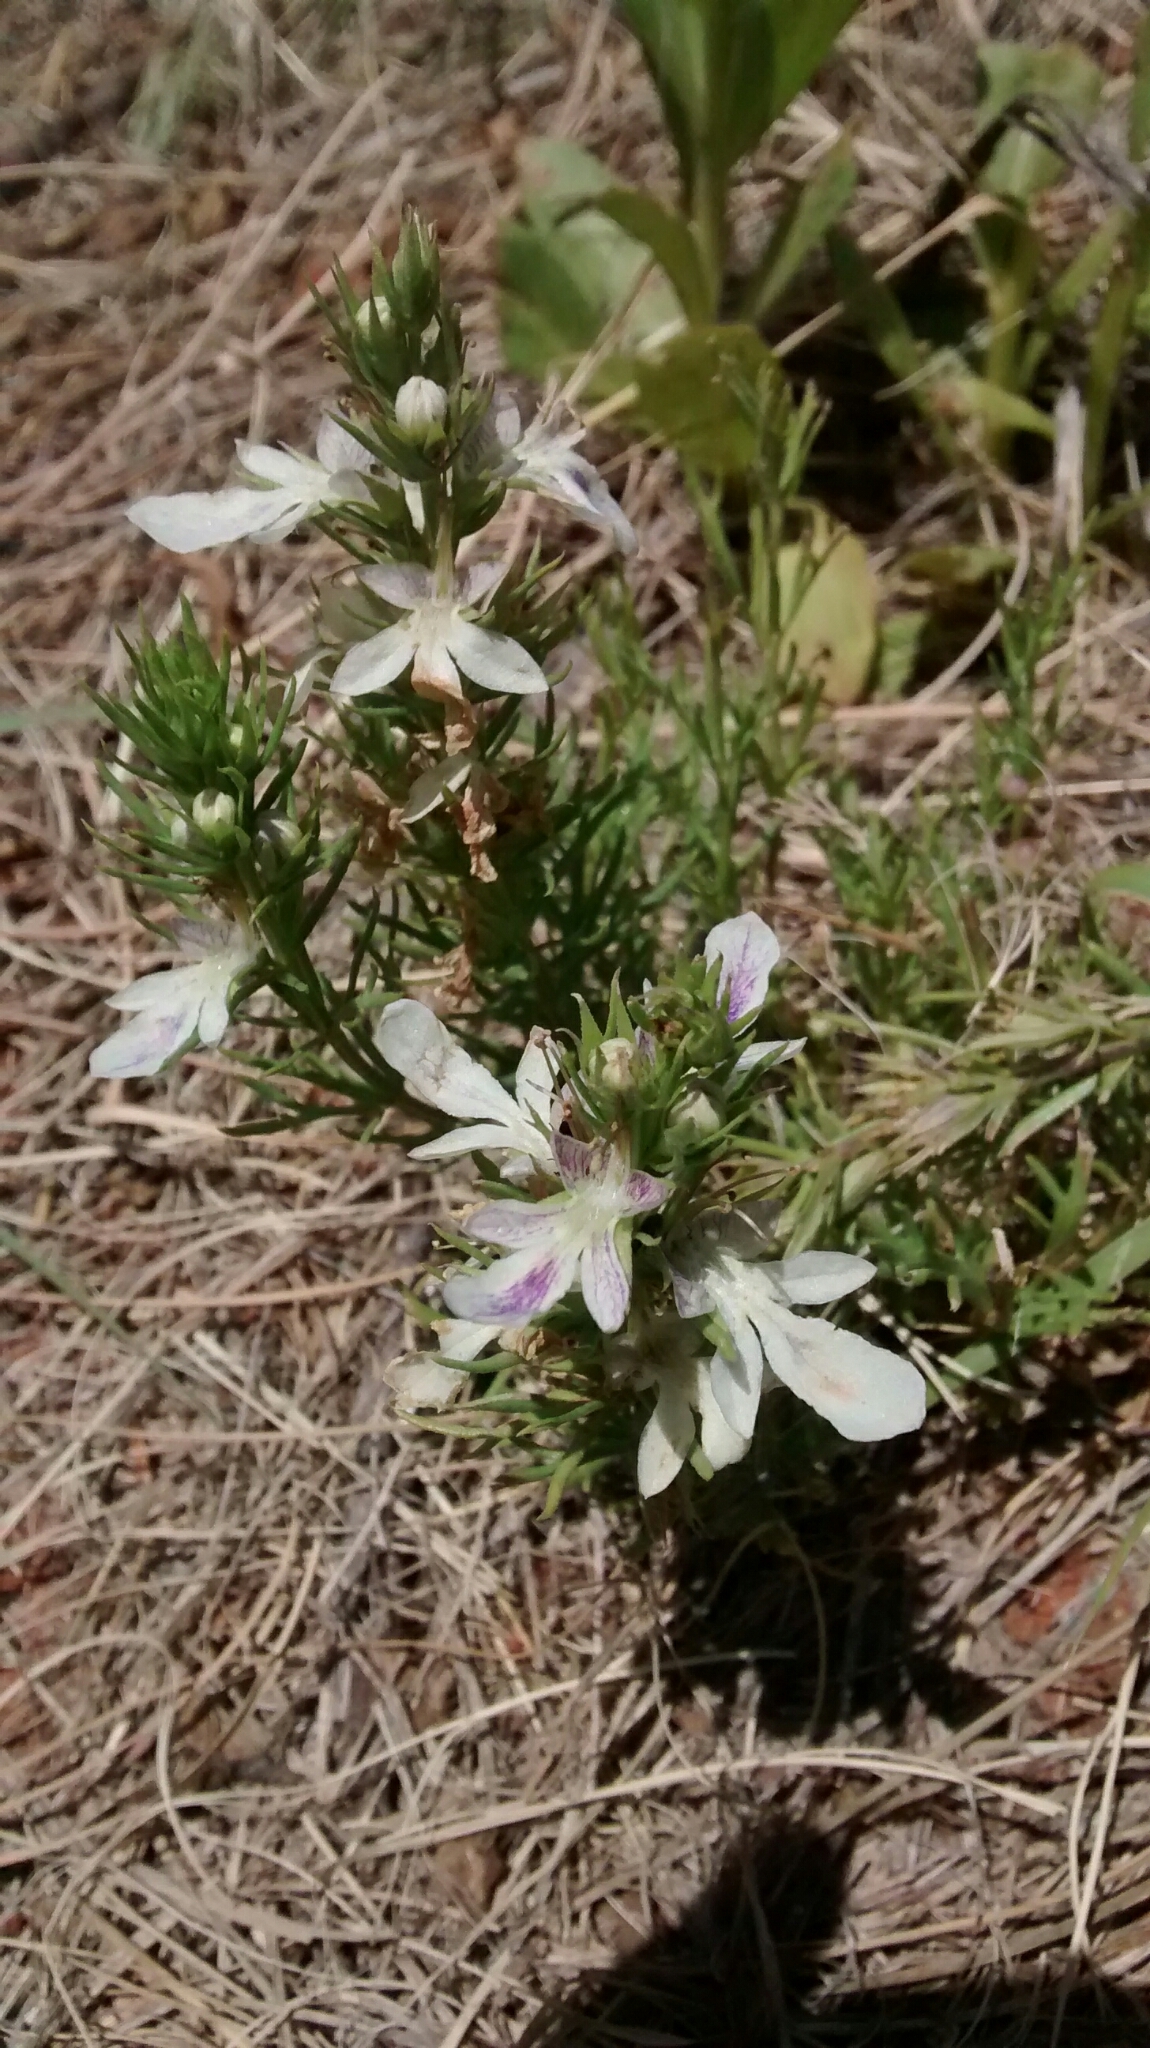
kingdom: Plantae
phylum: Tracheophyta
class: Magnoliopsida
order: Lamiales
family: Lamiaceae
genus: Teucrium
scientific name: Teucrium laciniatum
